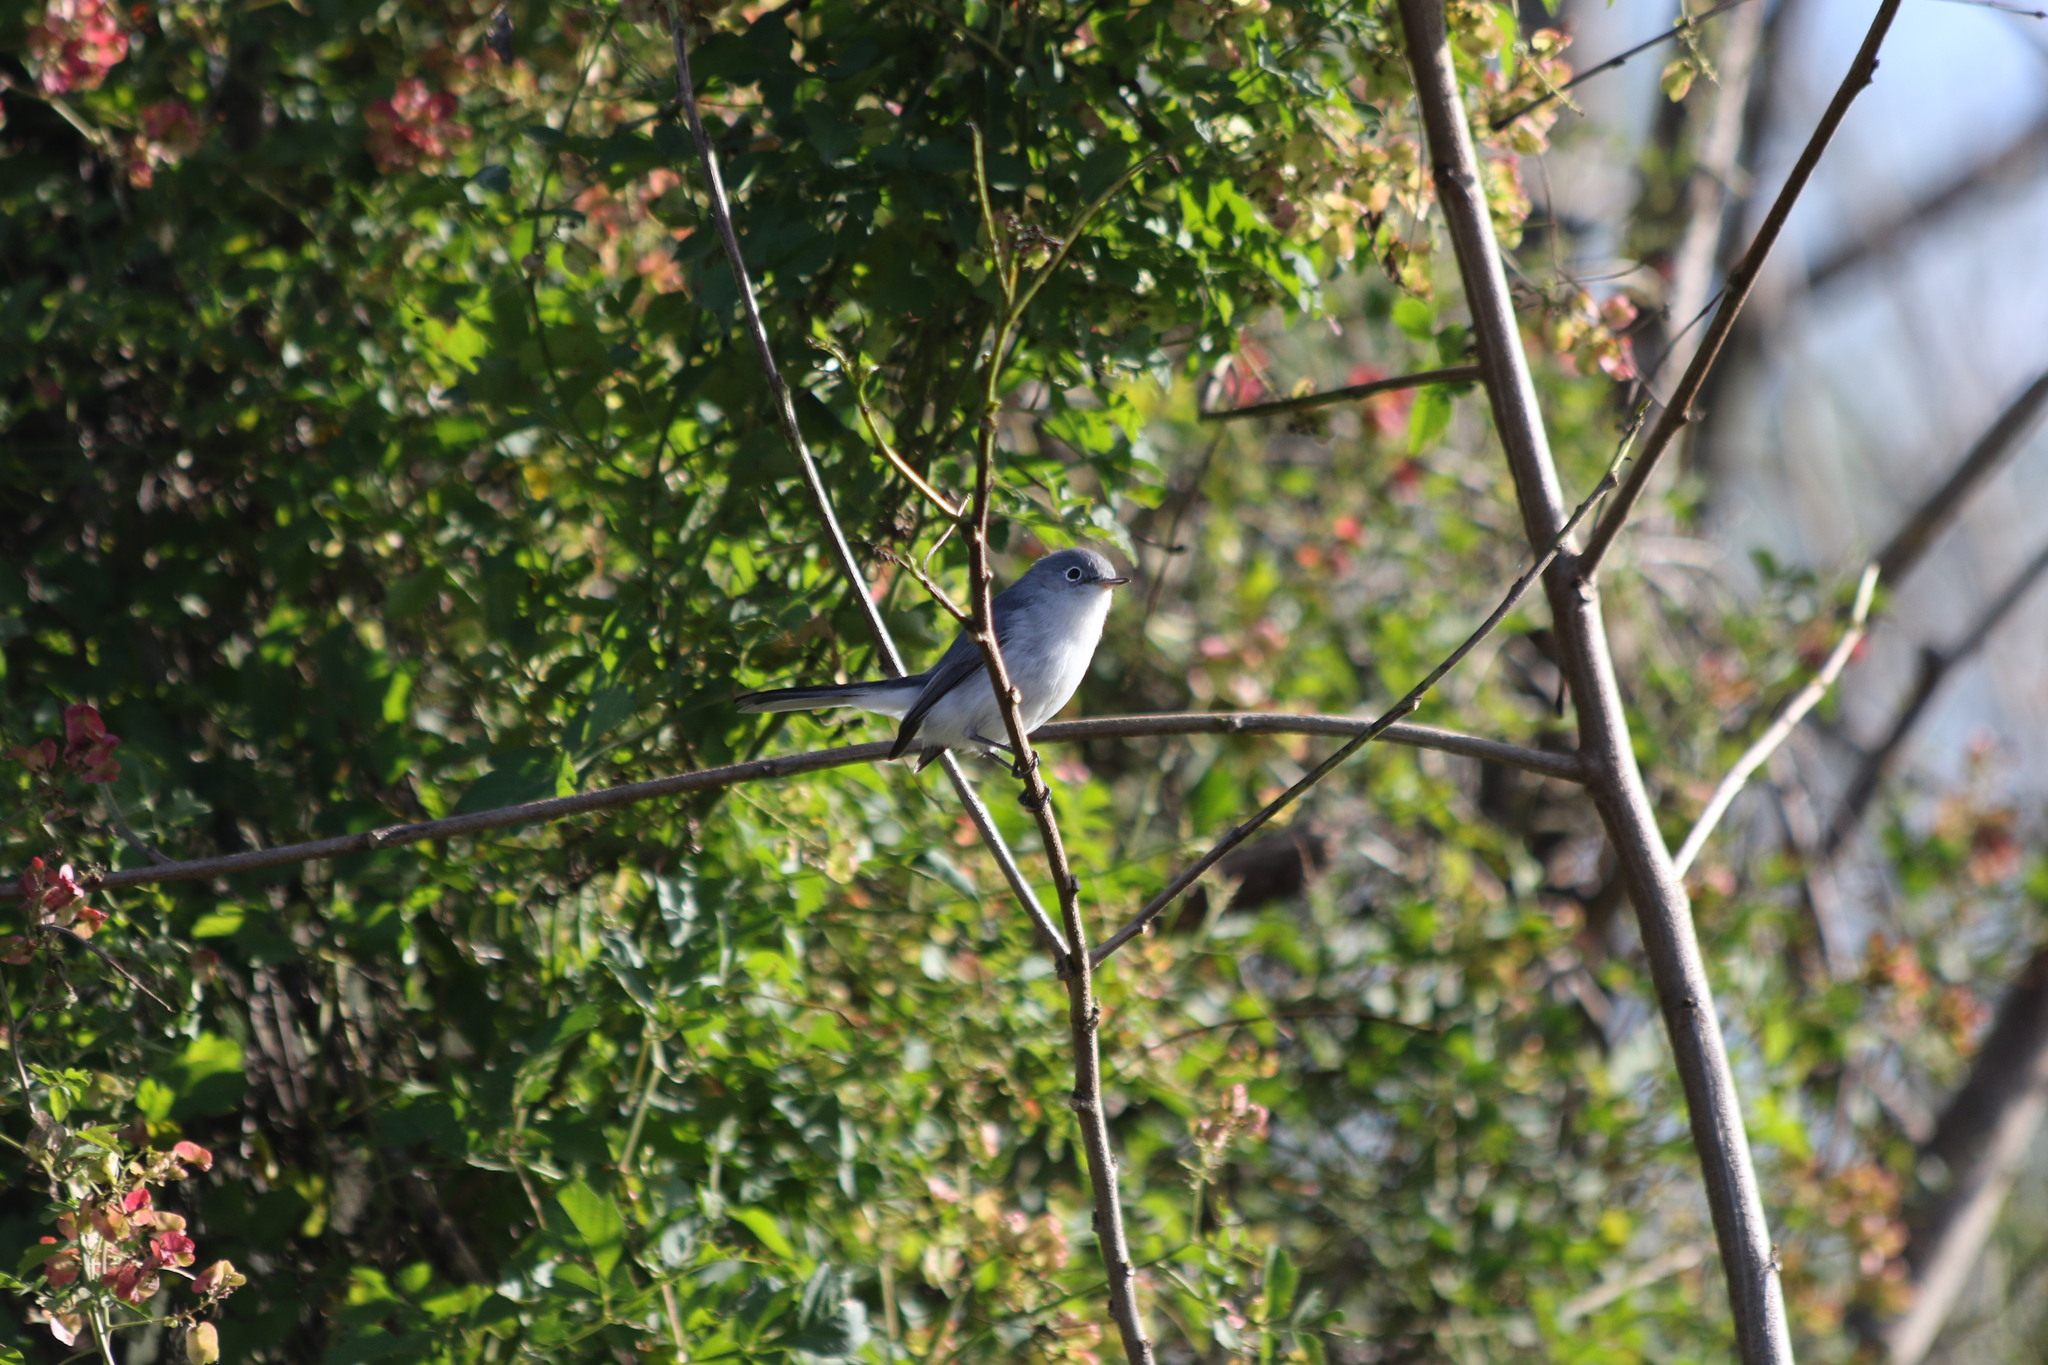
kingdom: Animalia
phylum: Chordata
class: Aves
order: Passeriformes
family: Polioptilidae
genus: Polioptila
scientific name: Polioptila caerulea
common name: Blue-gray gnatcatcher
